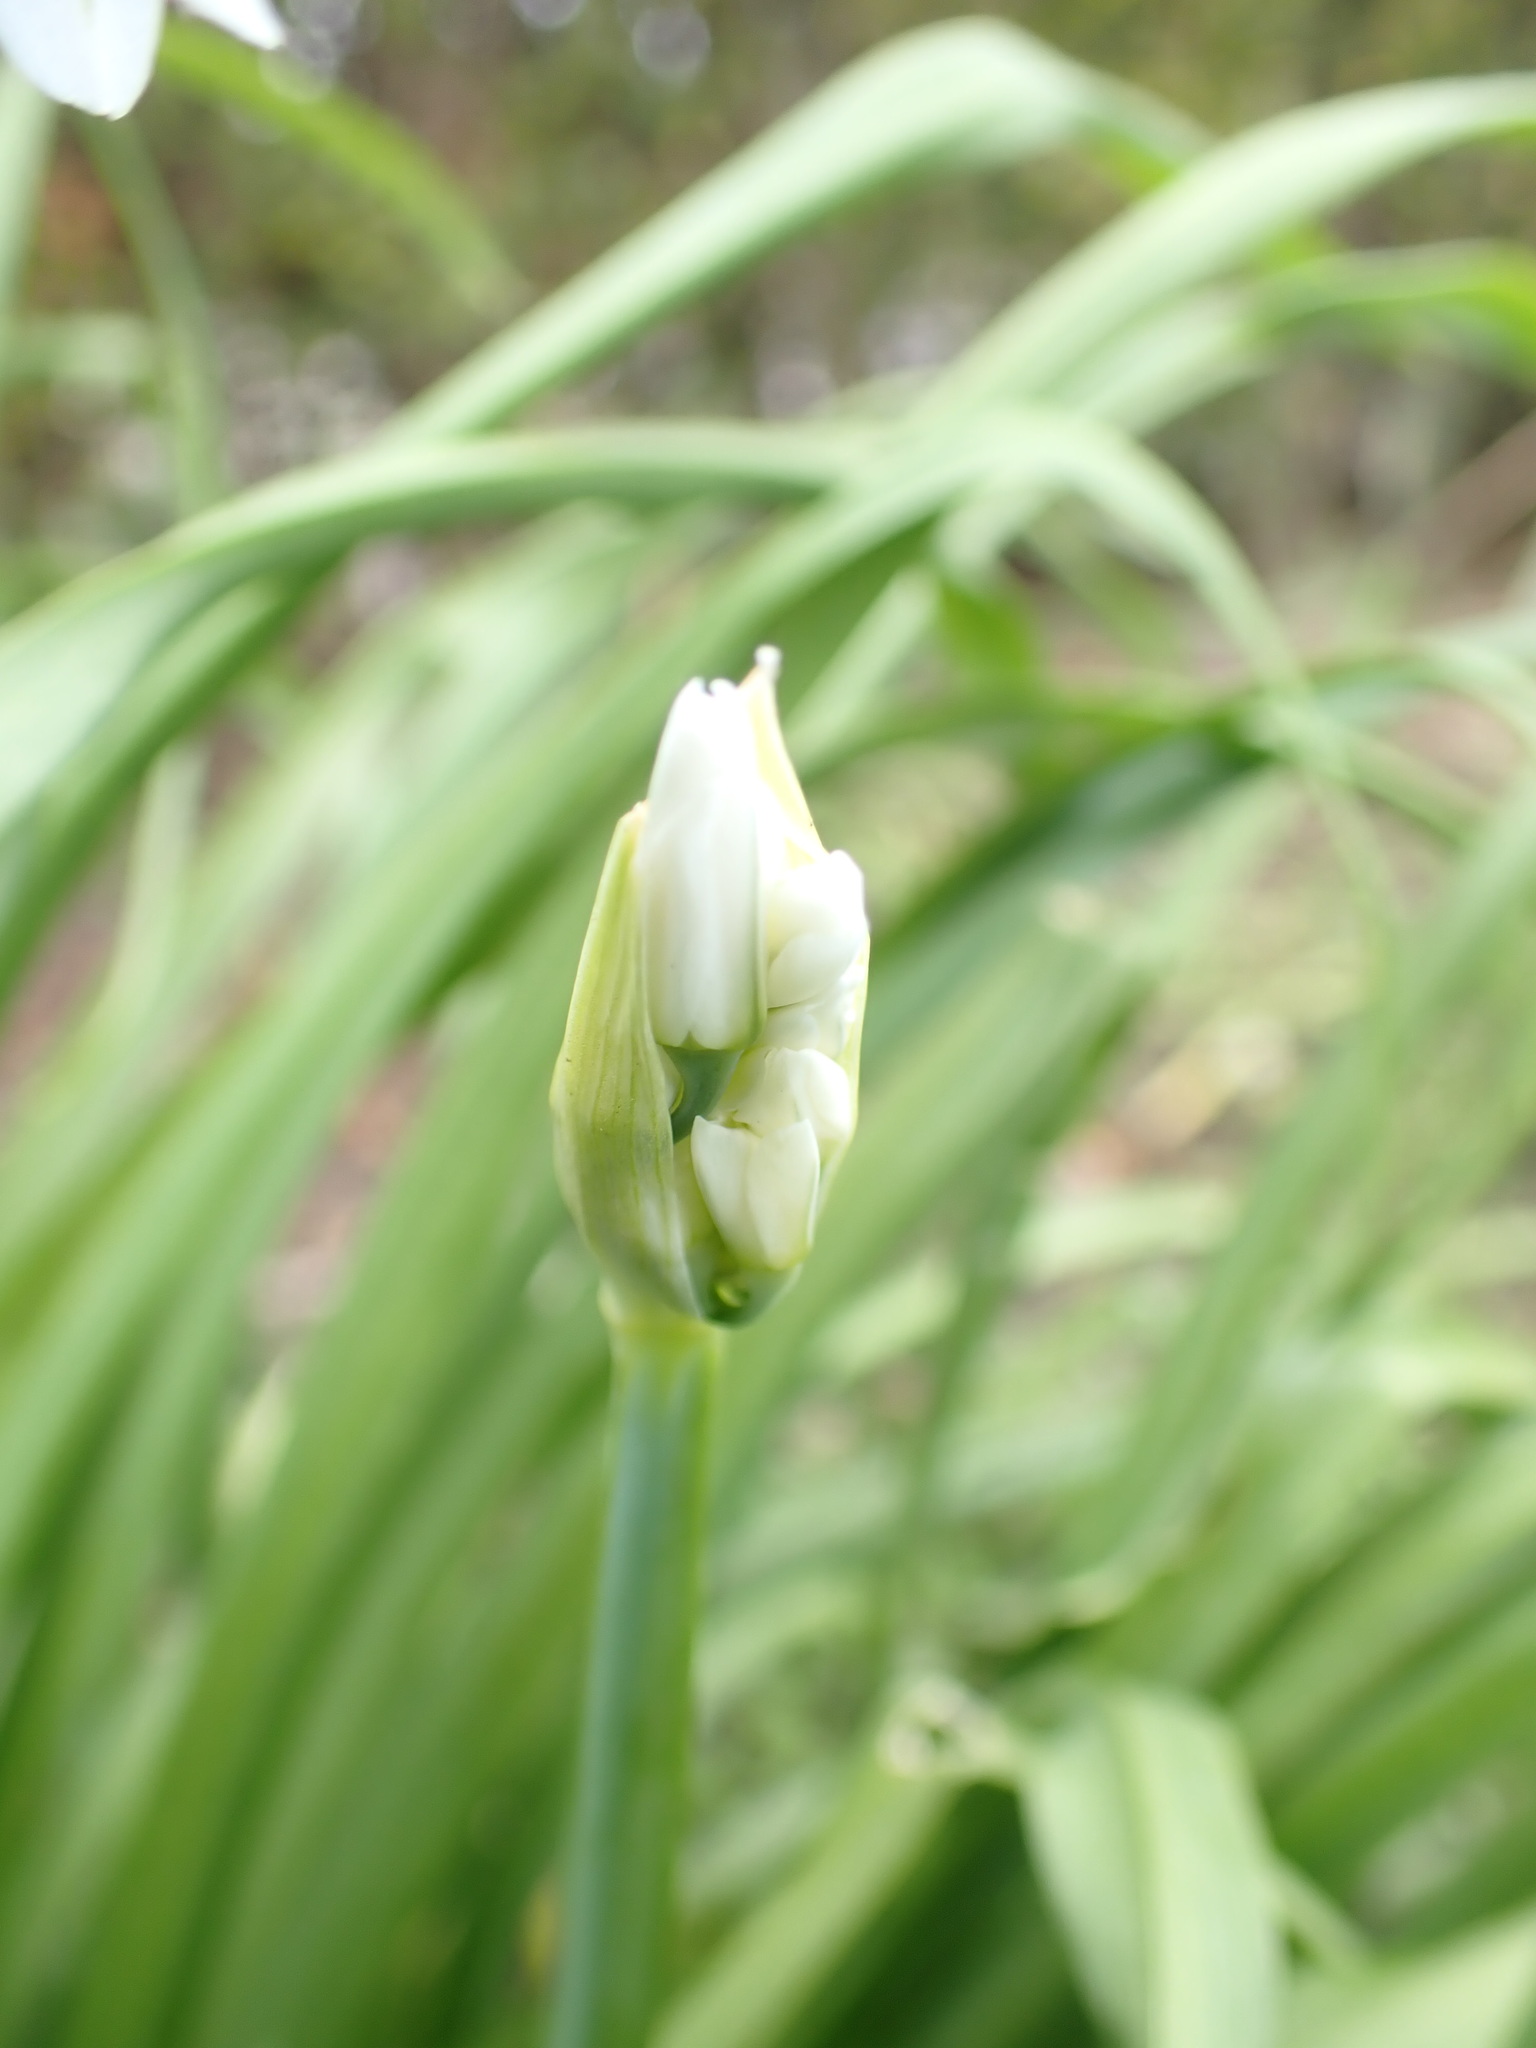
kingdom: Plantae
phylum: Tracheophyta
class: Liliopsida
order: Asparagales
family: Amaryllidaceae
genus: Allium
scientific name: Allium triquetrum
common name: Three-cornered garlic
